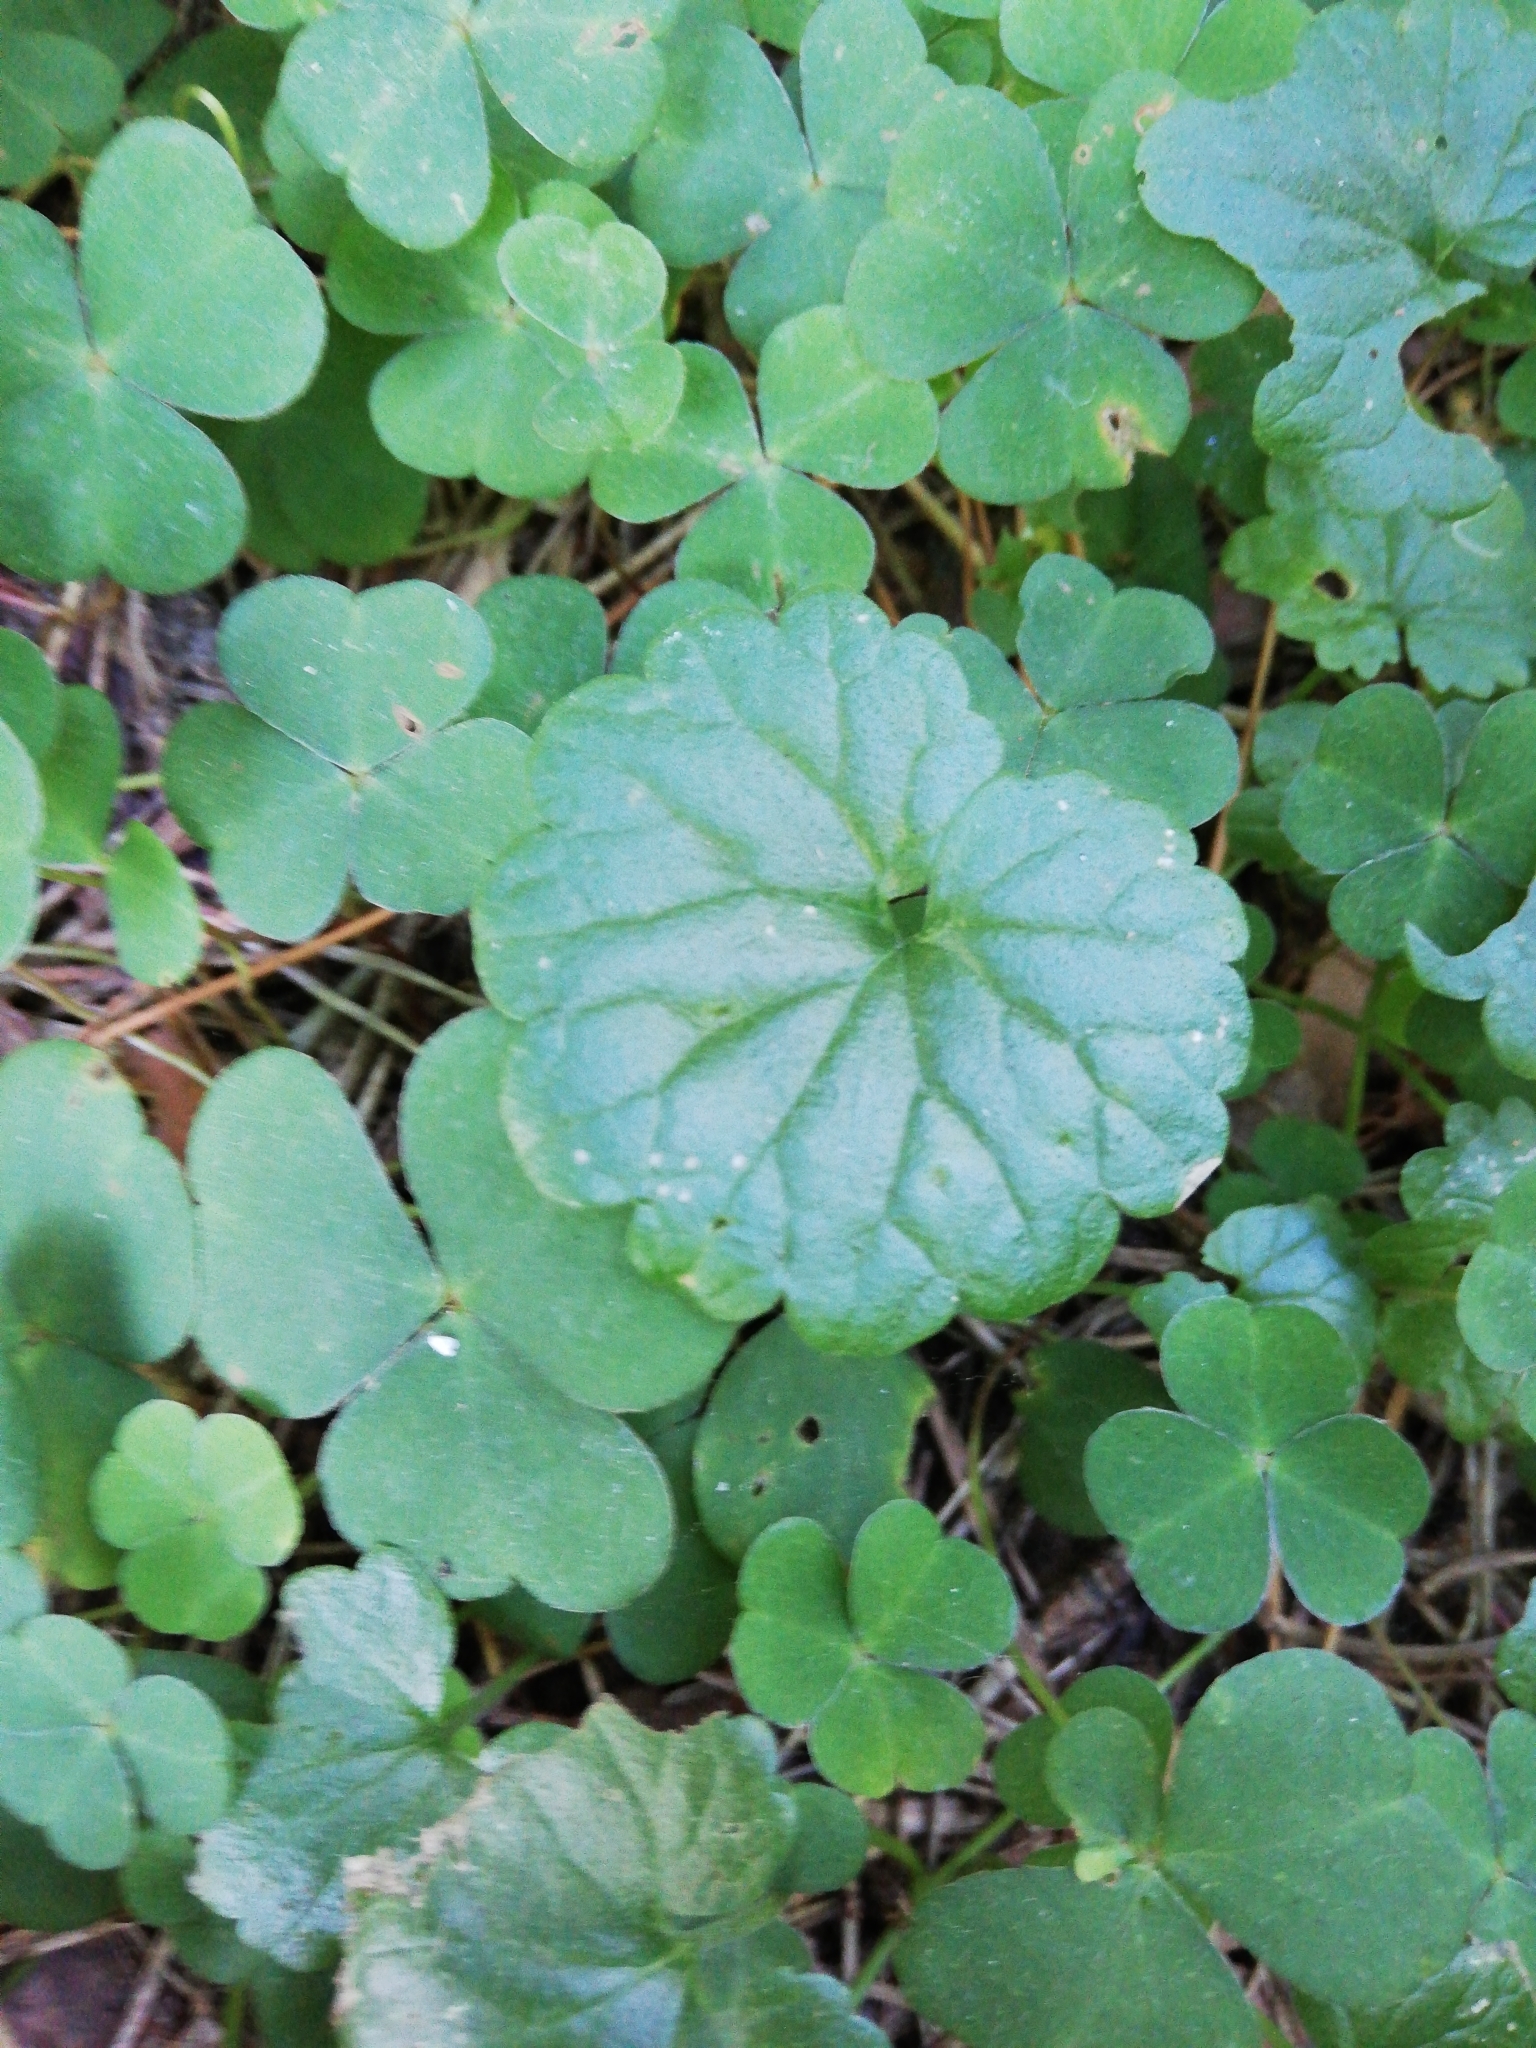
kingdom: Plantae
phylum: Tracheophyta
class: Magnoliopsida
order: Lamiales
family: Lamiaceae
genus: Glechoma
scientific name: Glechoma hederacea
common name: Ground ivy
